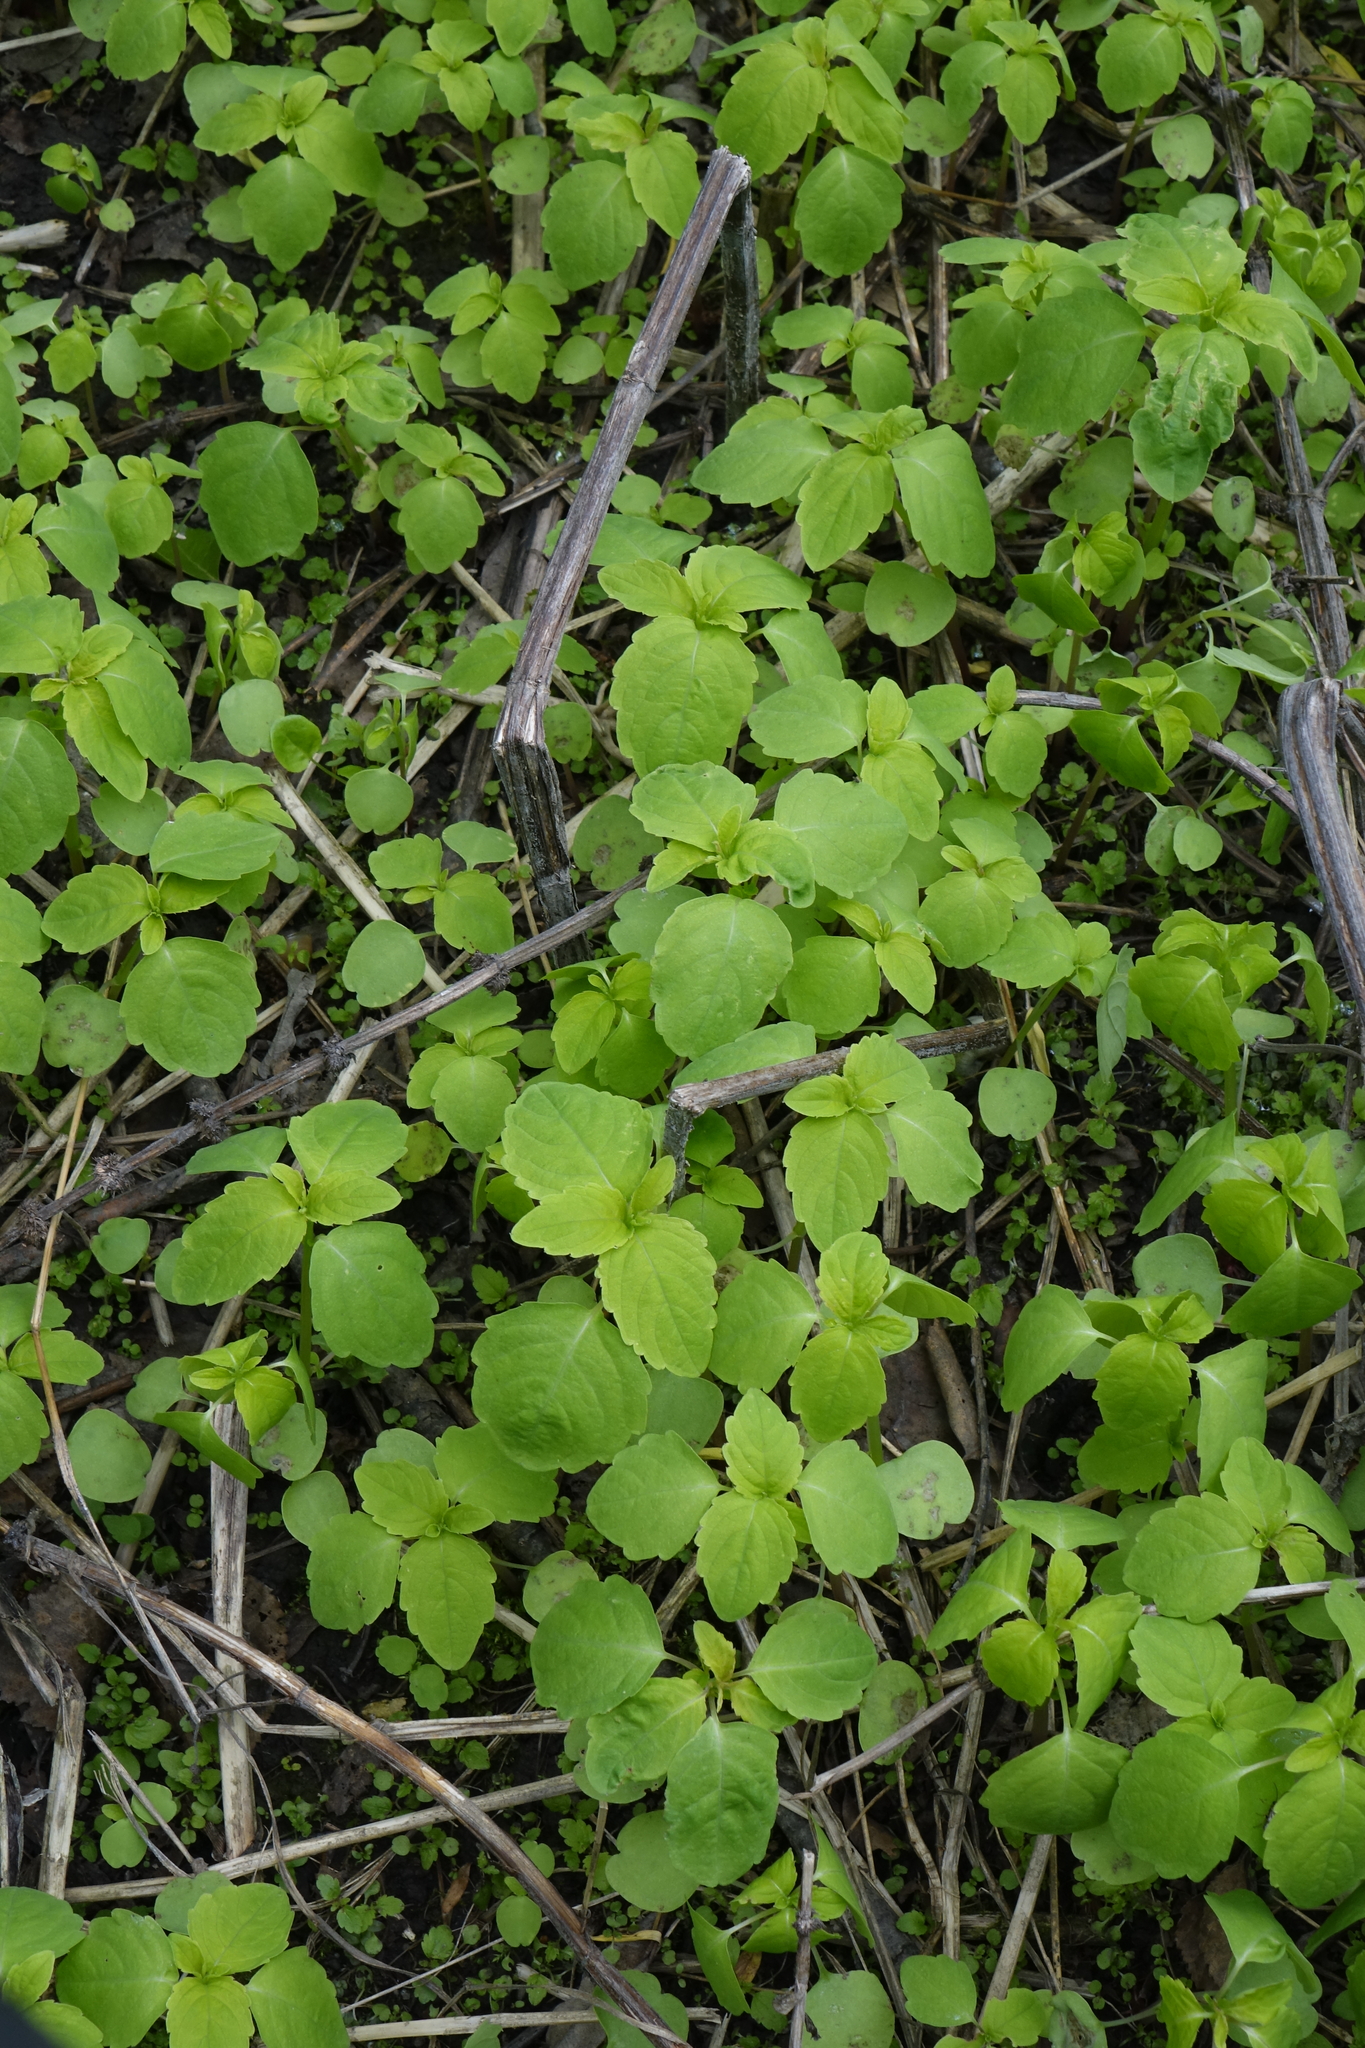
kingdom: Plantae
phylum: Tracheophyta
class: Magnoliopsida
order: Ericales
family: Balsaminaceae
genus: Impatiens
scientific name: Impatiens noli-tangere
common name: Touch-me-not balsam
